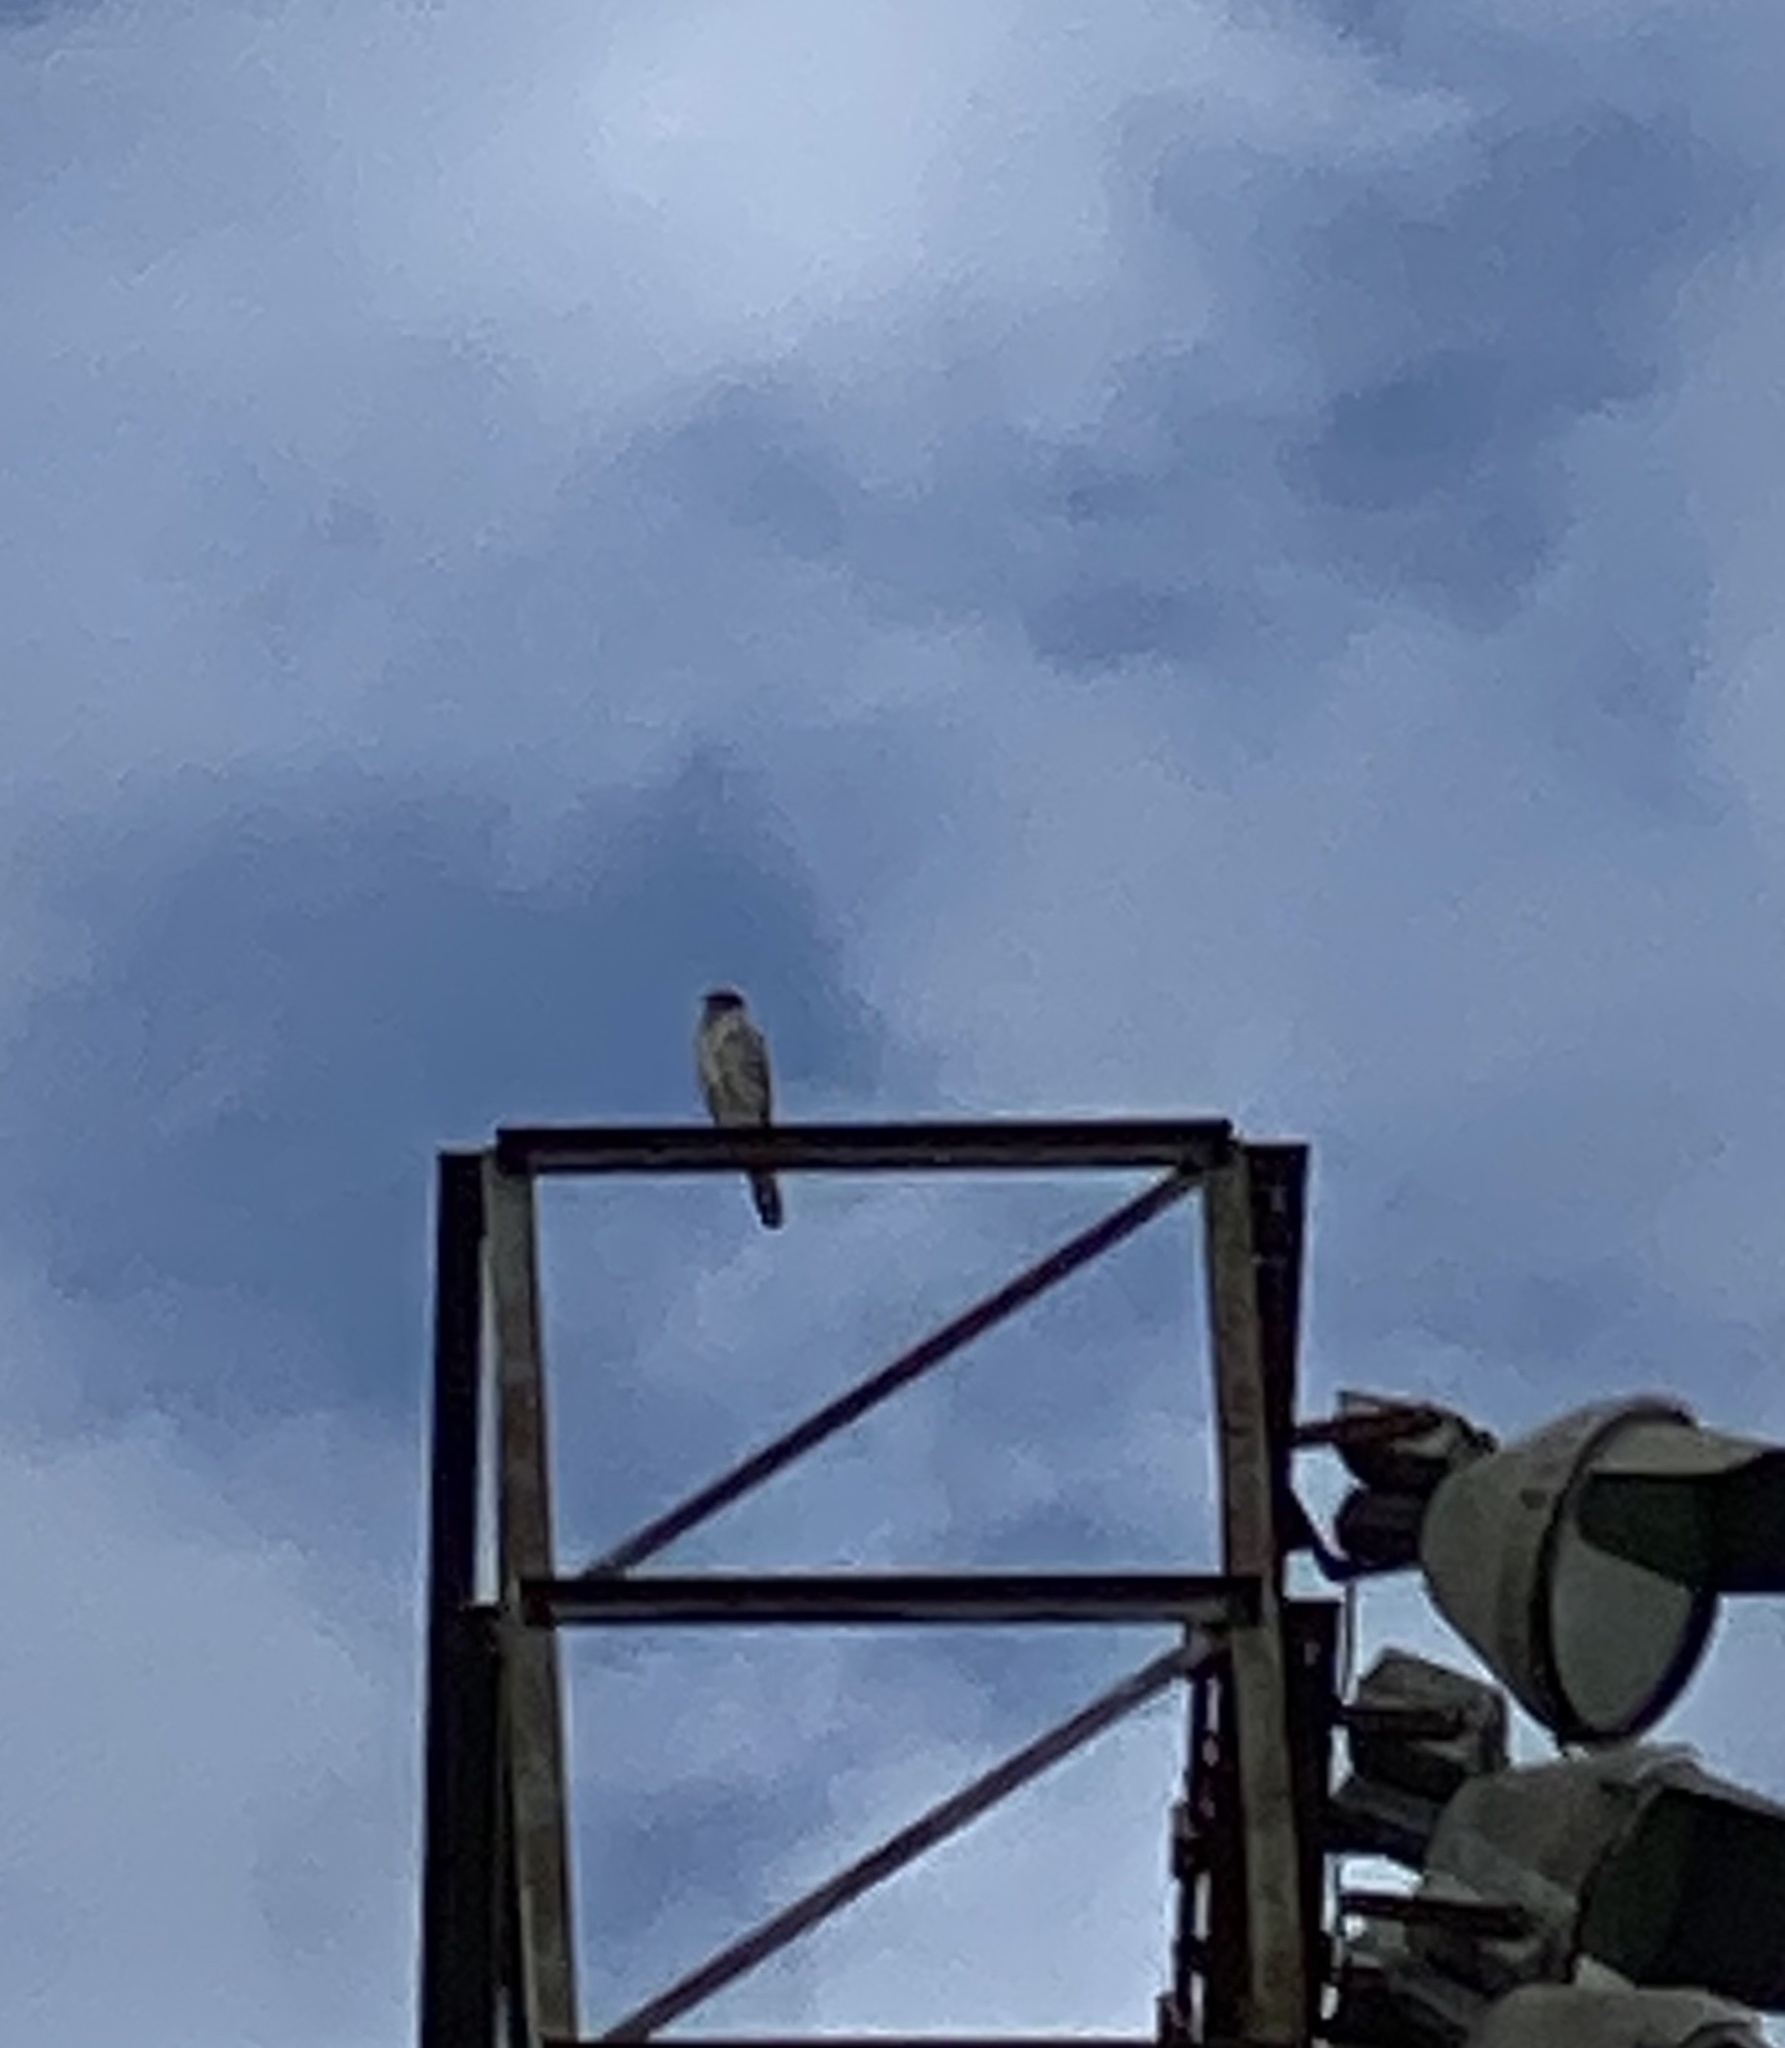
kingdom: Animalia
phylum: Chordata
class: Aves
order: Falconiformes
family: Falconidae
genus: Falco
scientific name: Falco sparverius
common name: American kestrel
